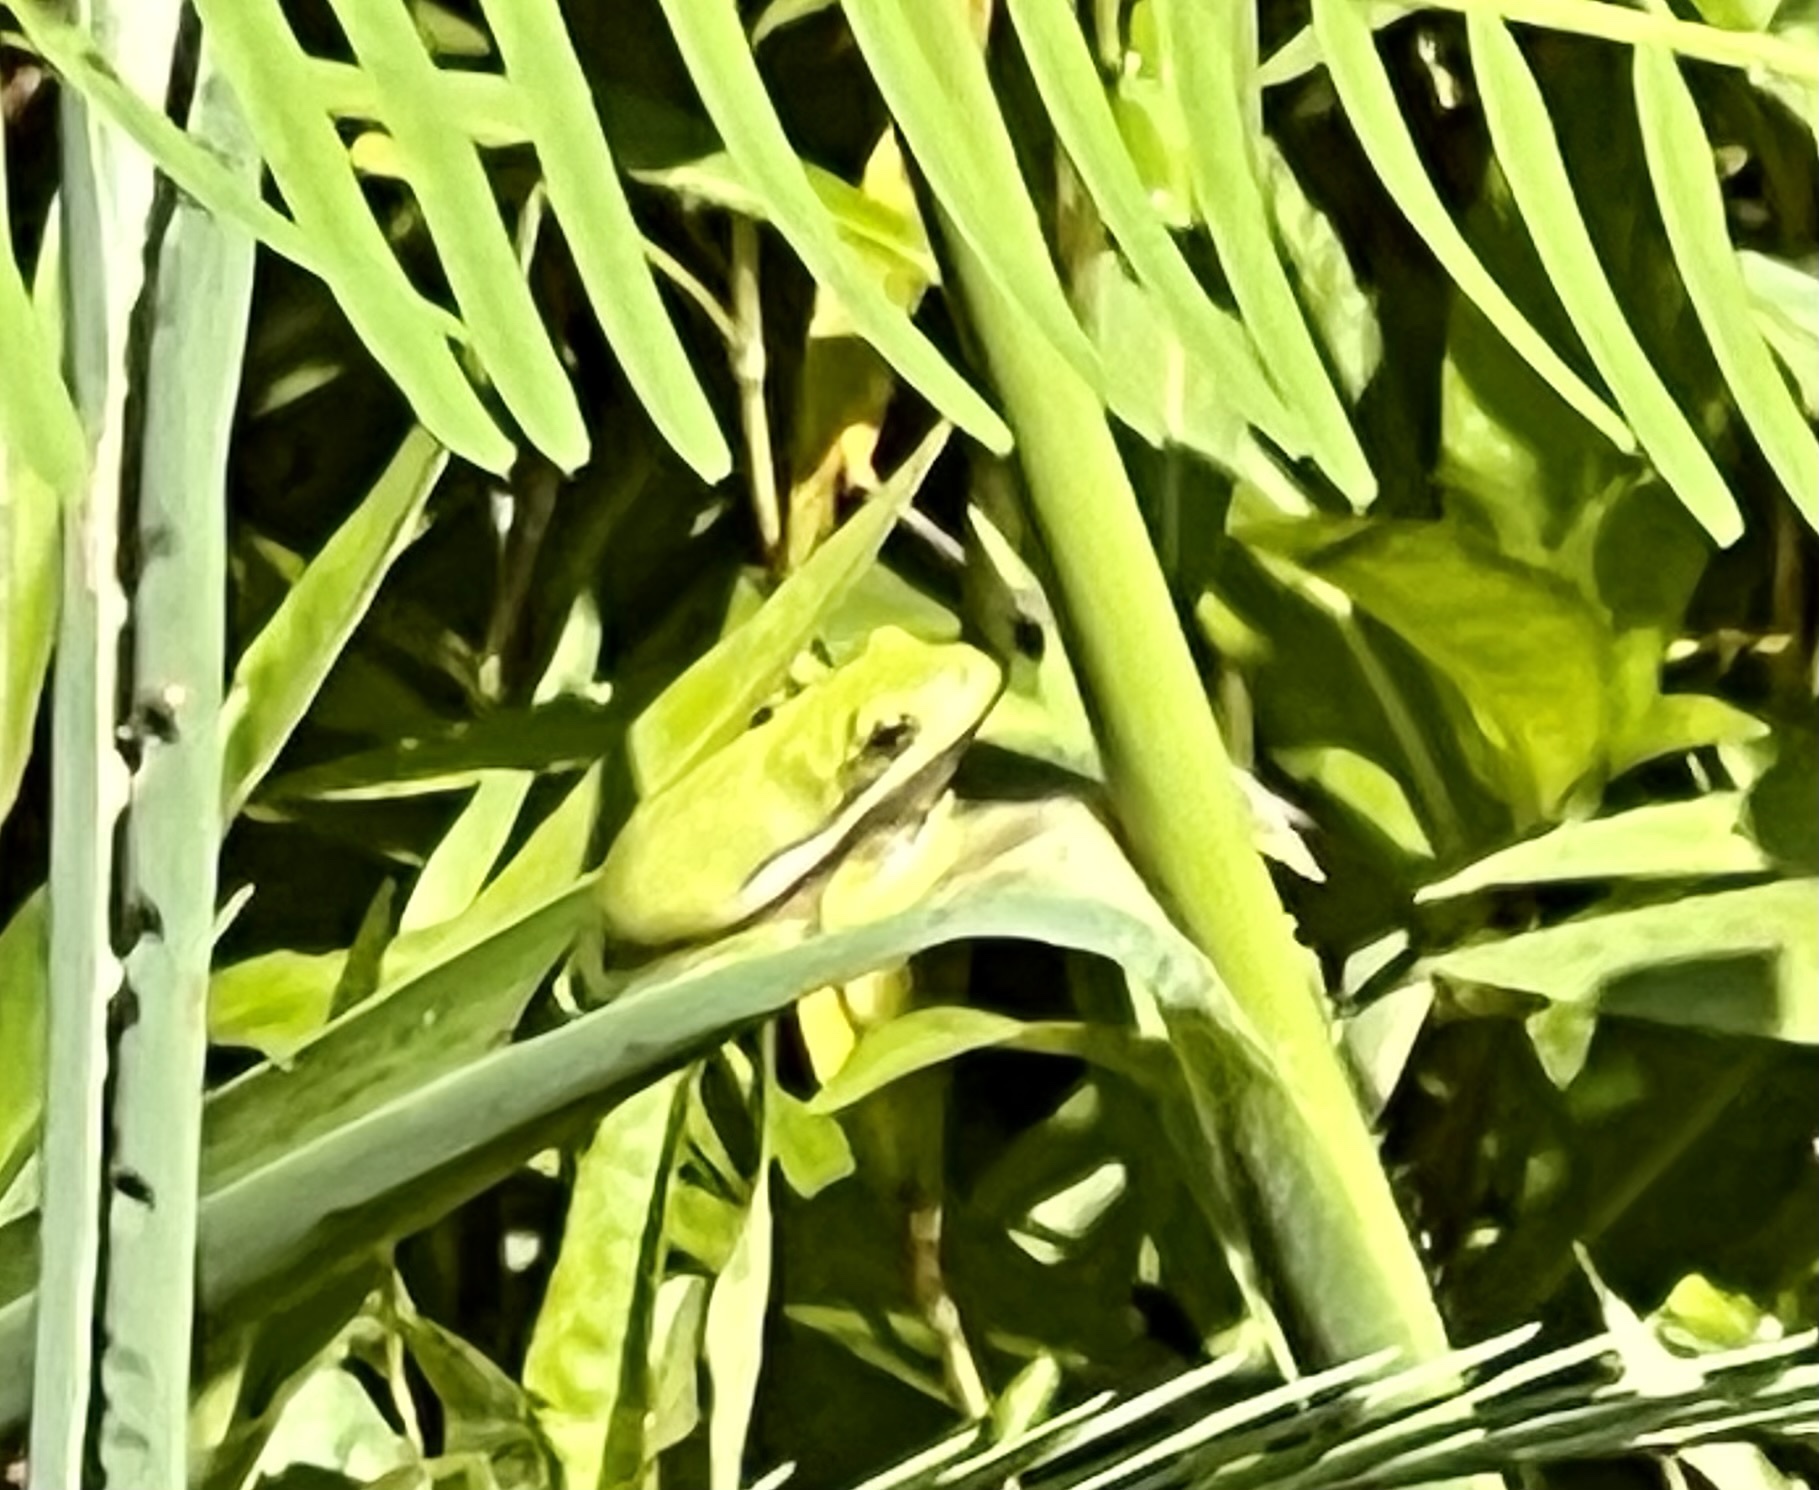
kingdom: Animalia
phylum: Chordata
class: Amphibia
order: Anura
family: Hylidae
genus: Dryophytes
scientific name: Dryophytes cinereus
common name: Green treefrog
